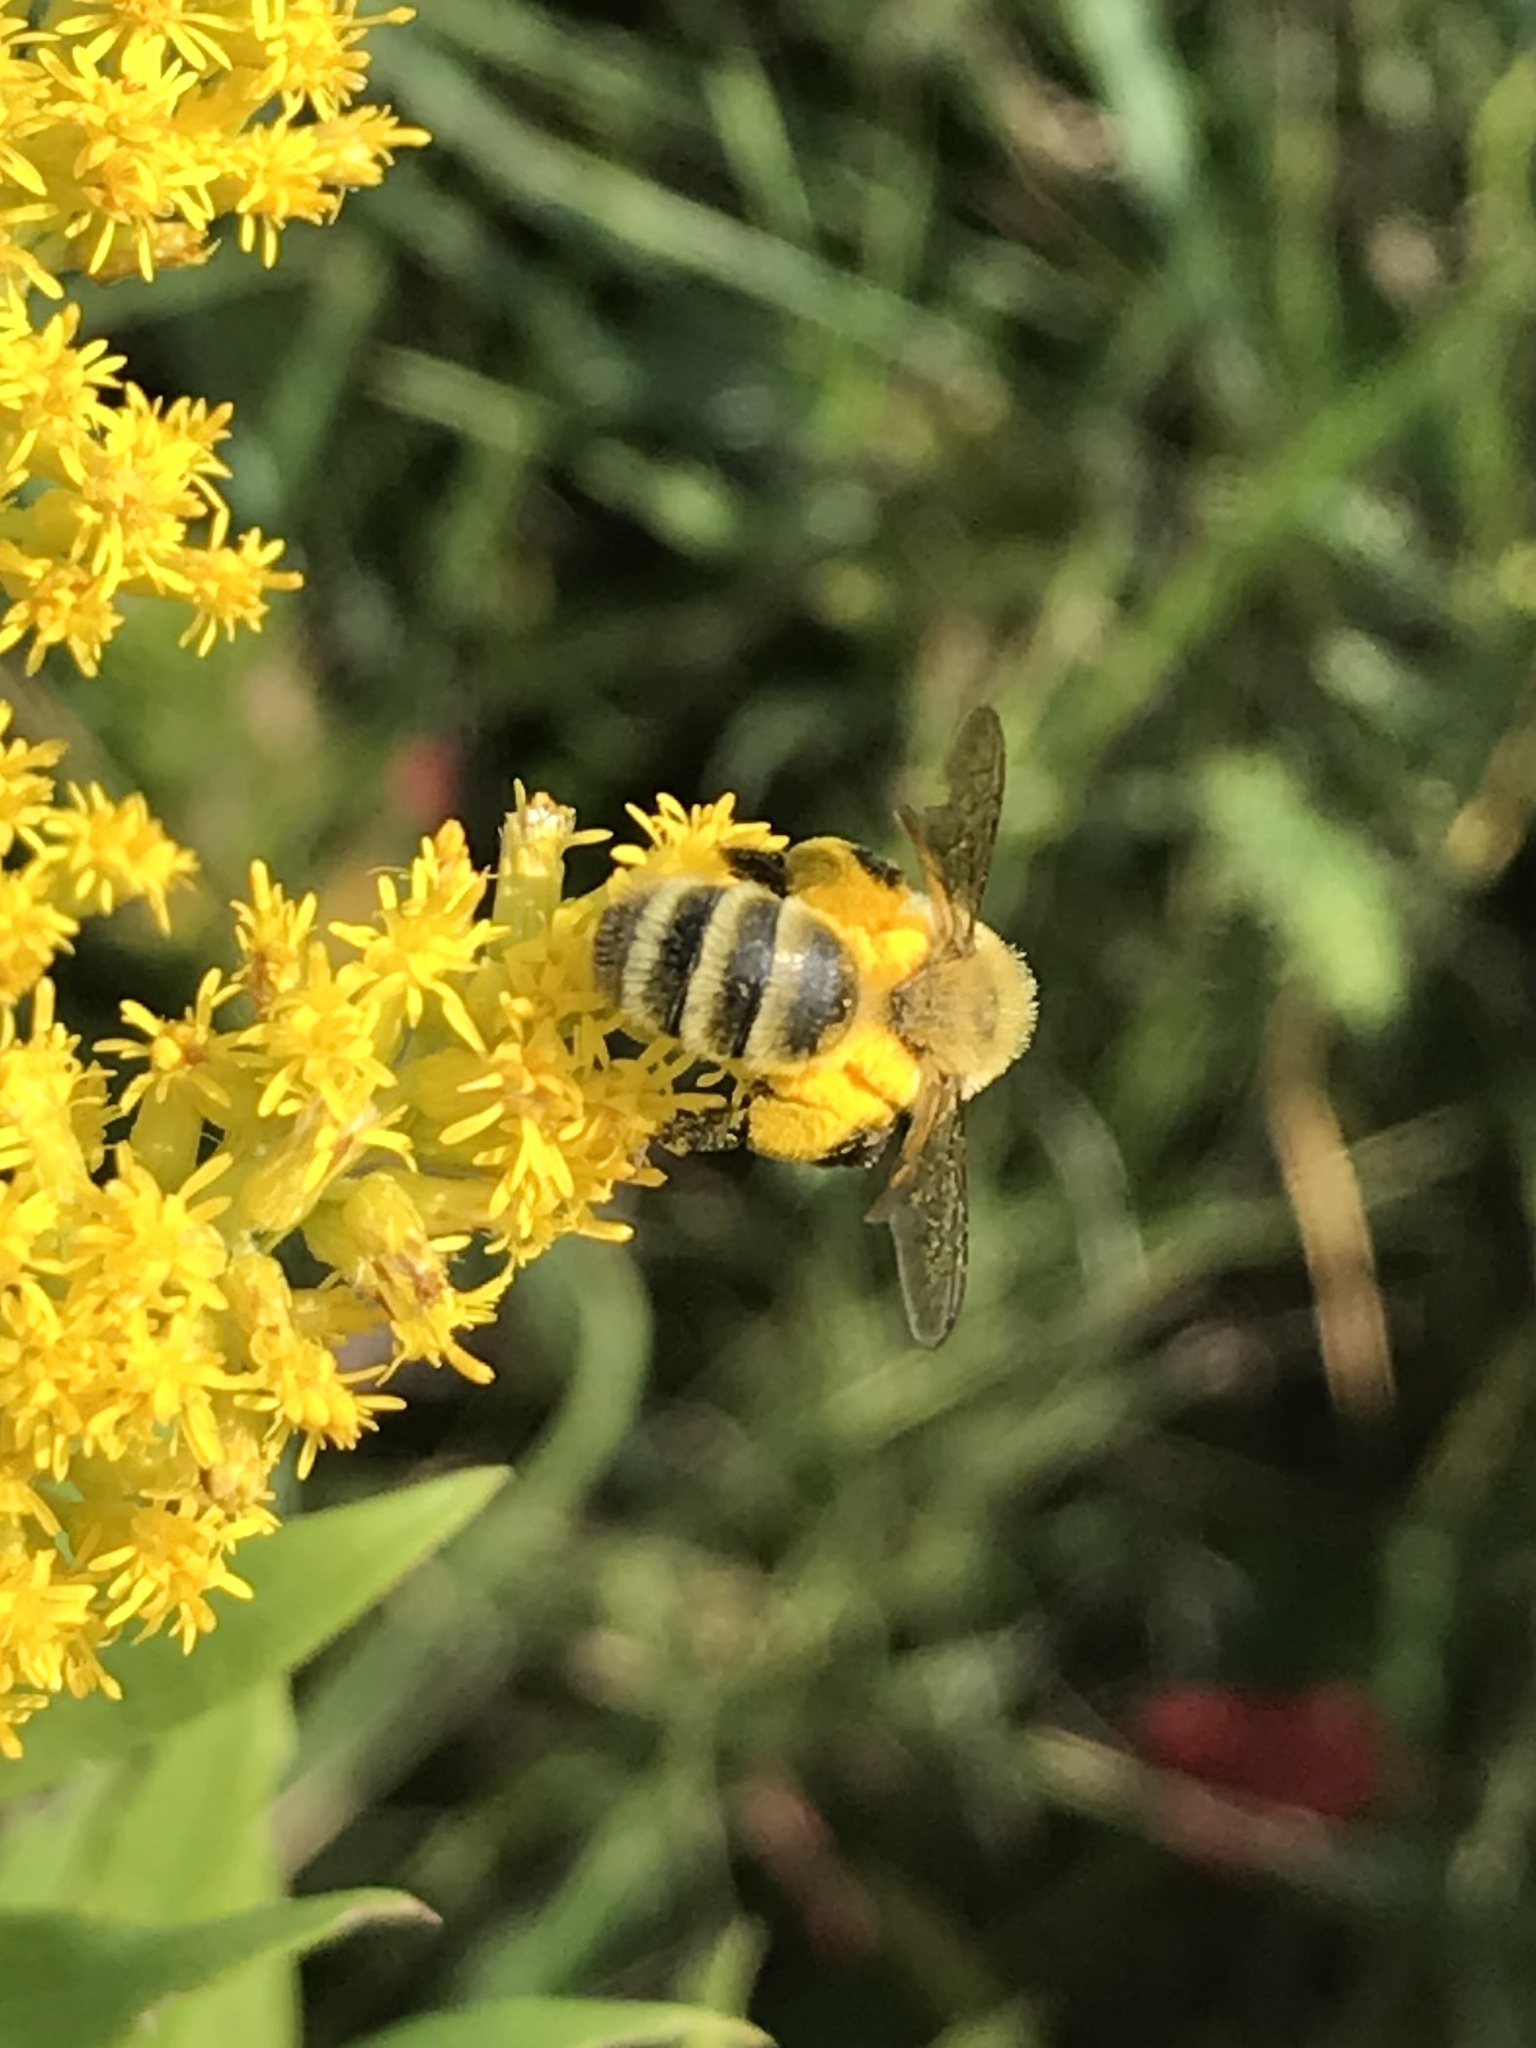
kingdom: Animalia
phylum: Arthropoda
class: Insecta
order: Hymenoptera
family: Andrenidae
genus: Andrena
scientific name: Andrena hirticincta
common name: Hairy-banded mining bee
